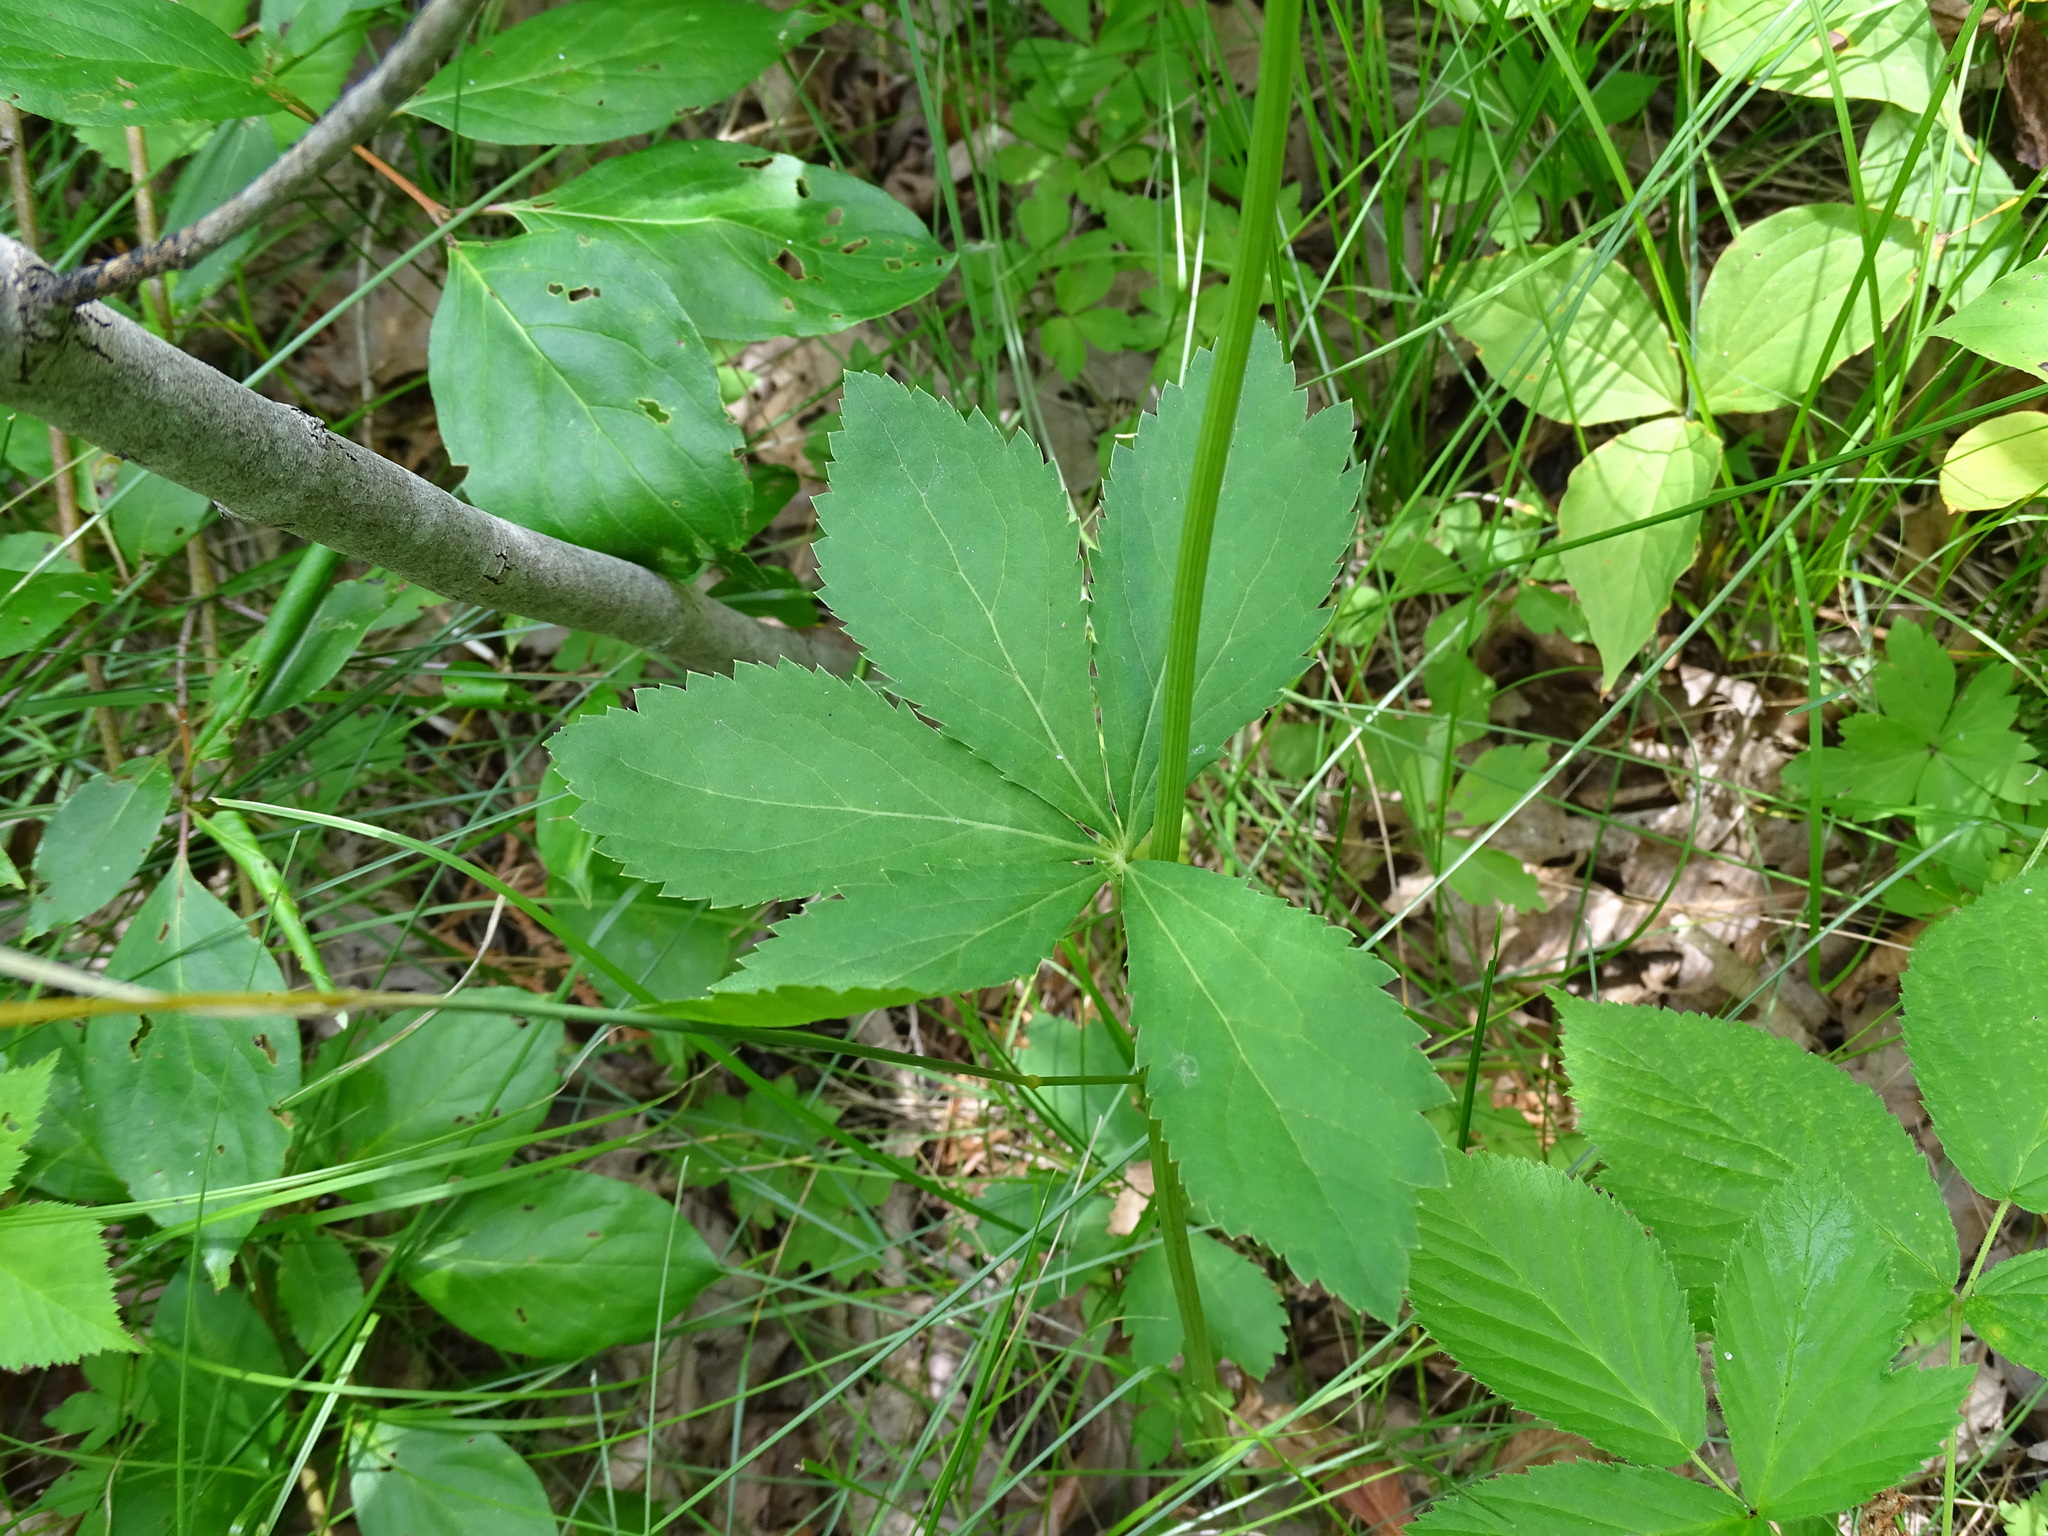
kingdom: Plantae
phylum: Tracheophyta
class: Magnoliopsida
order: Apiales
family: Apiaceae
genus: Sanicula
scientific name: Sanicula marilandica
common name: Black snakeroot
